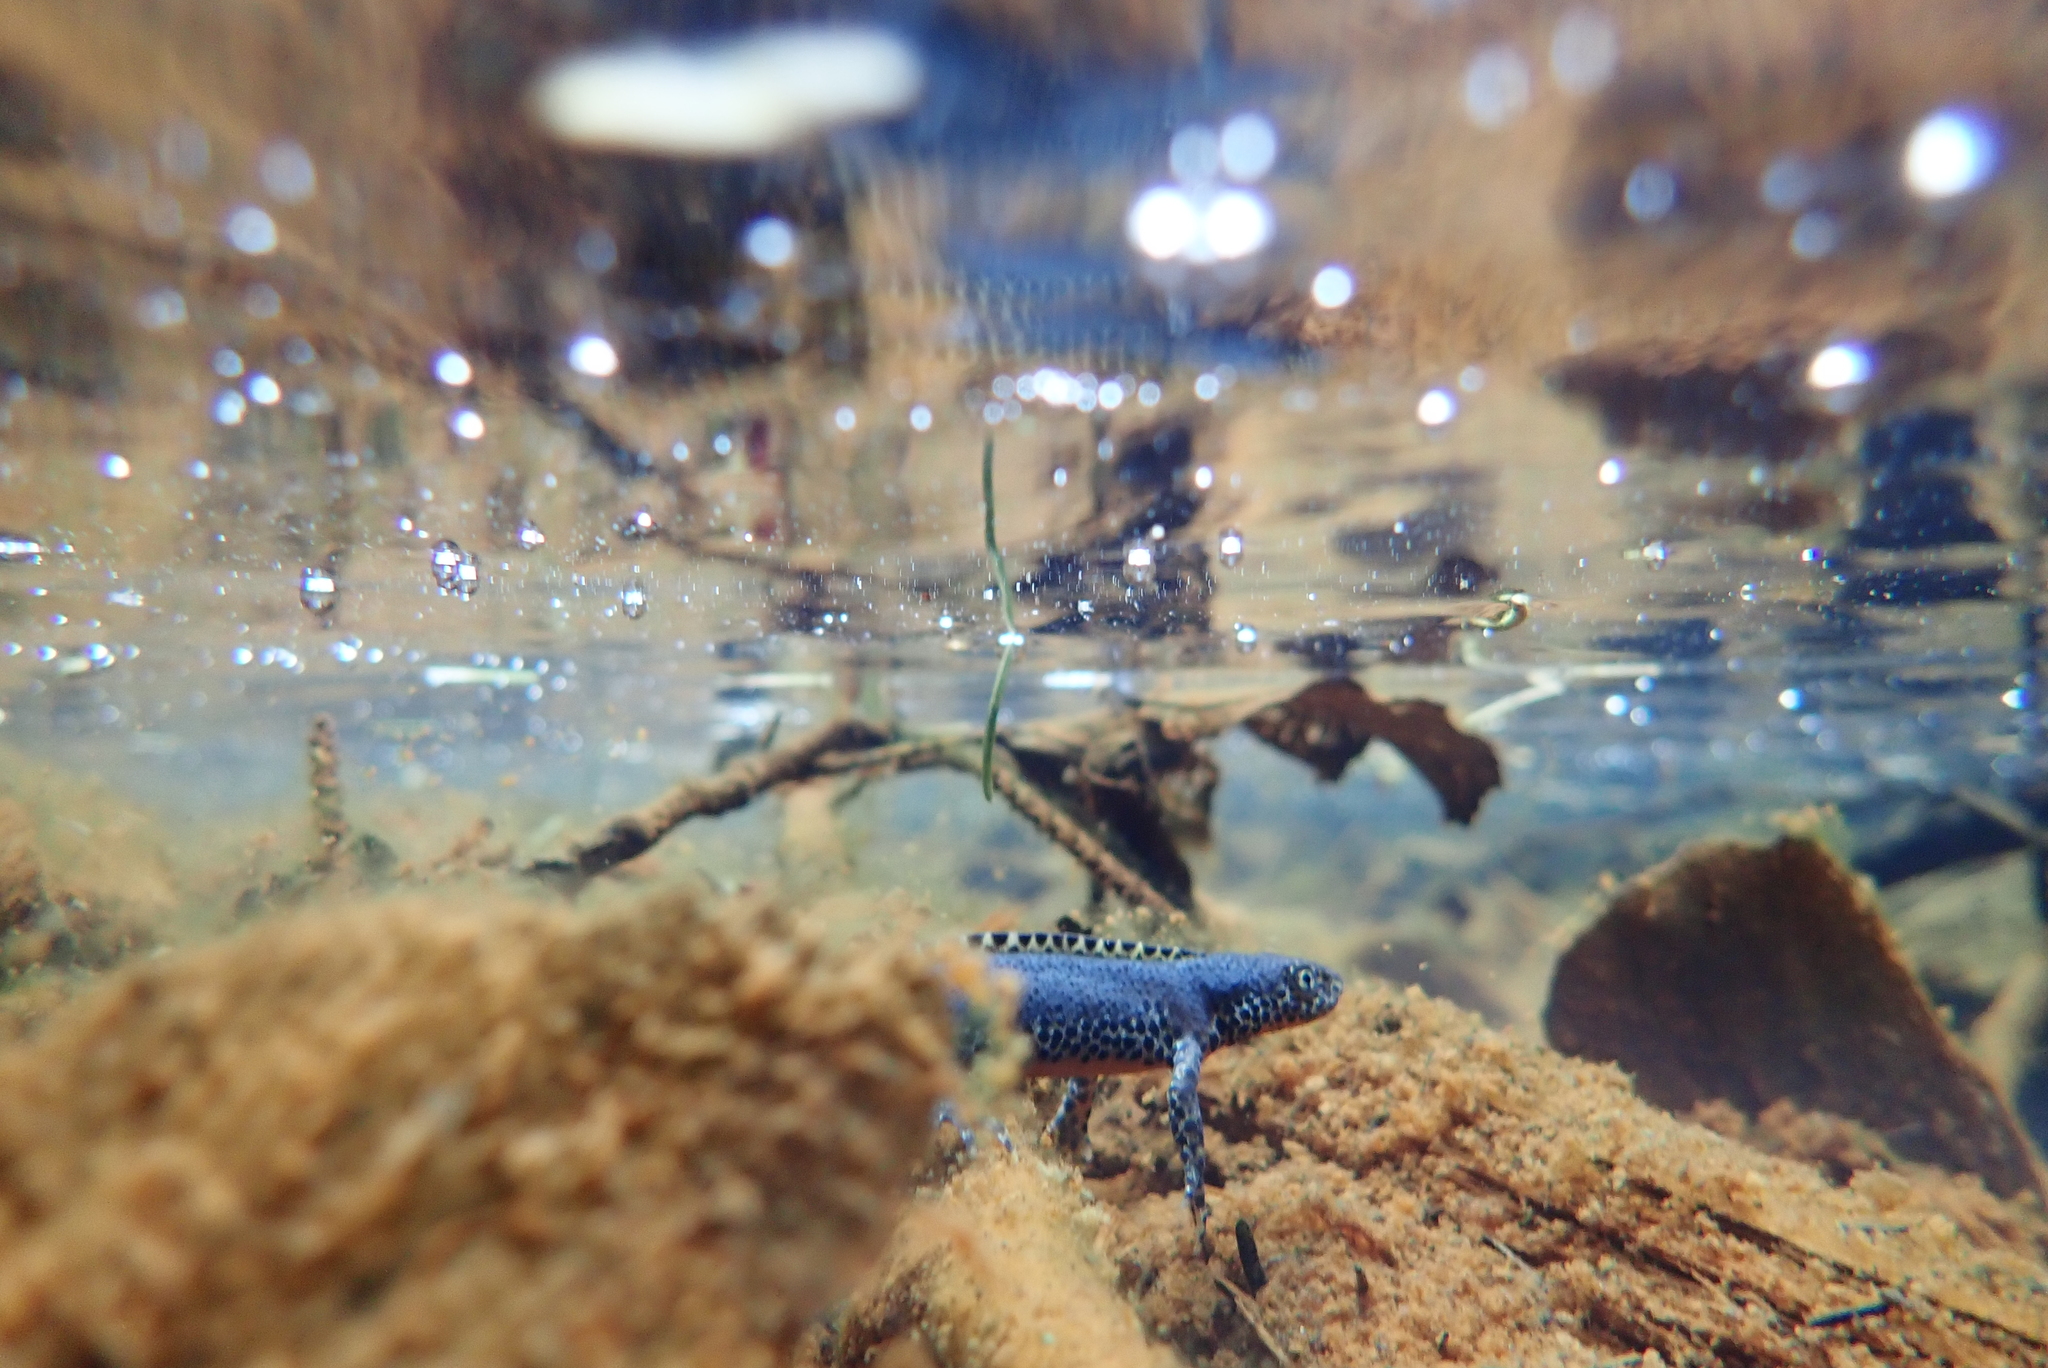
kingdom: Animalia
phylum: Chordata
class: Amphibia
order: Caudata
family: Salamandridae
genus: Ichthyosaura
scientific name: Ichthyosaura alpestris
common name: Alpine newt
